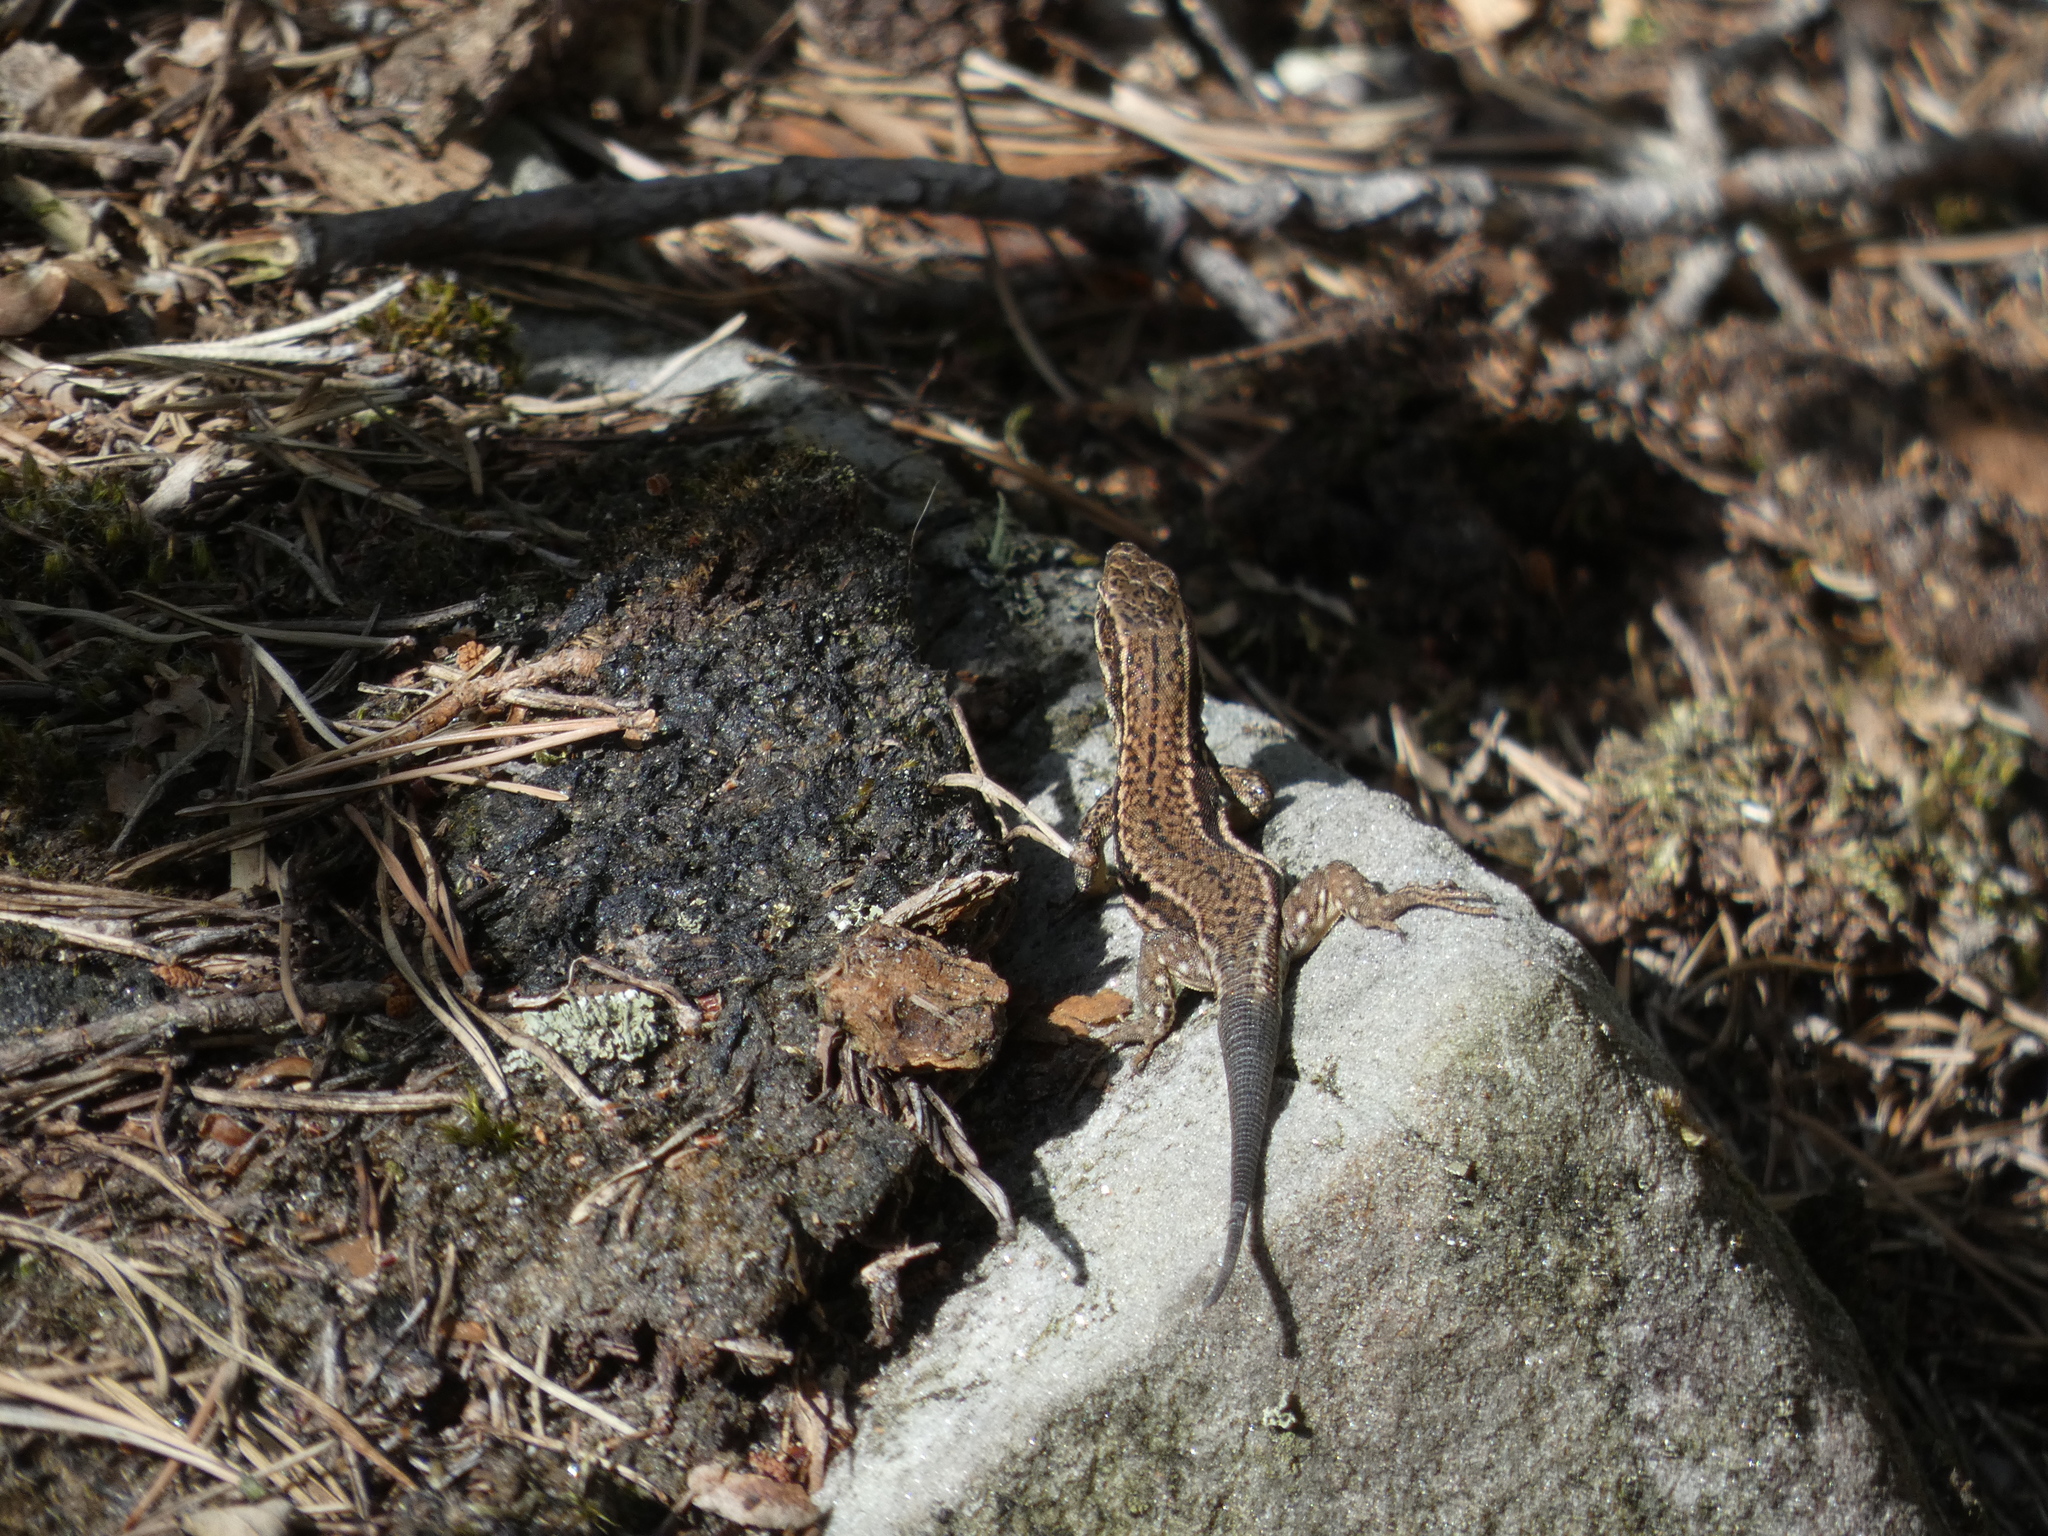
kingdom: Animalia
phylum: Chordata
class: Squamata
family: Lacertidae
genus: Podarcis
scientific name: Podarcis muralis
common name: Common wall lizard
